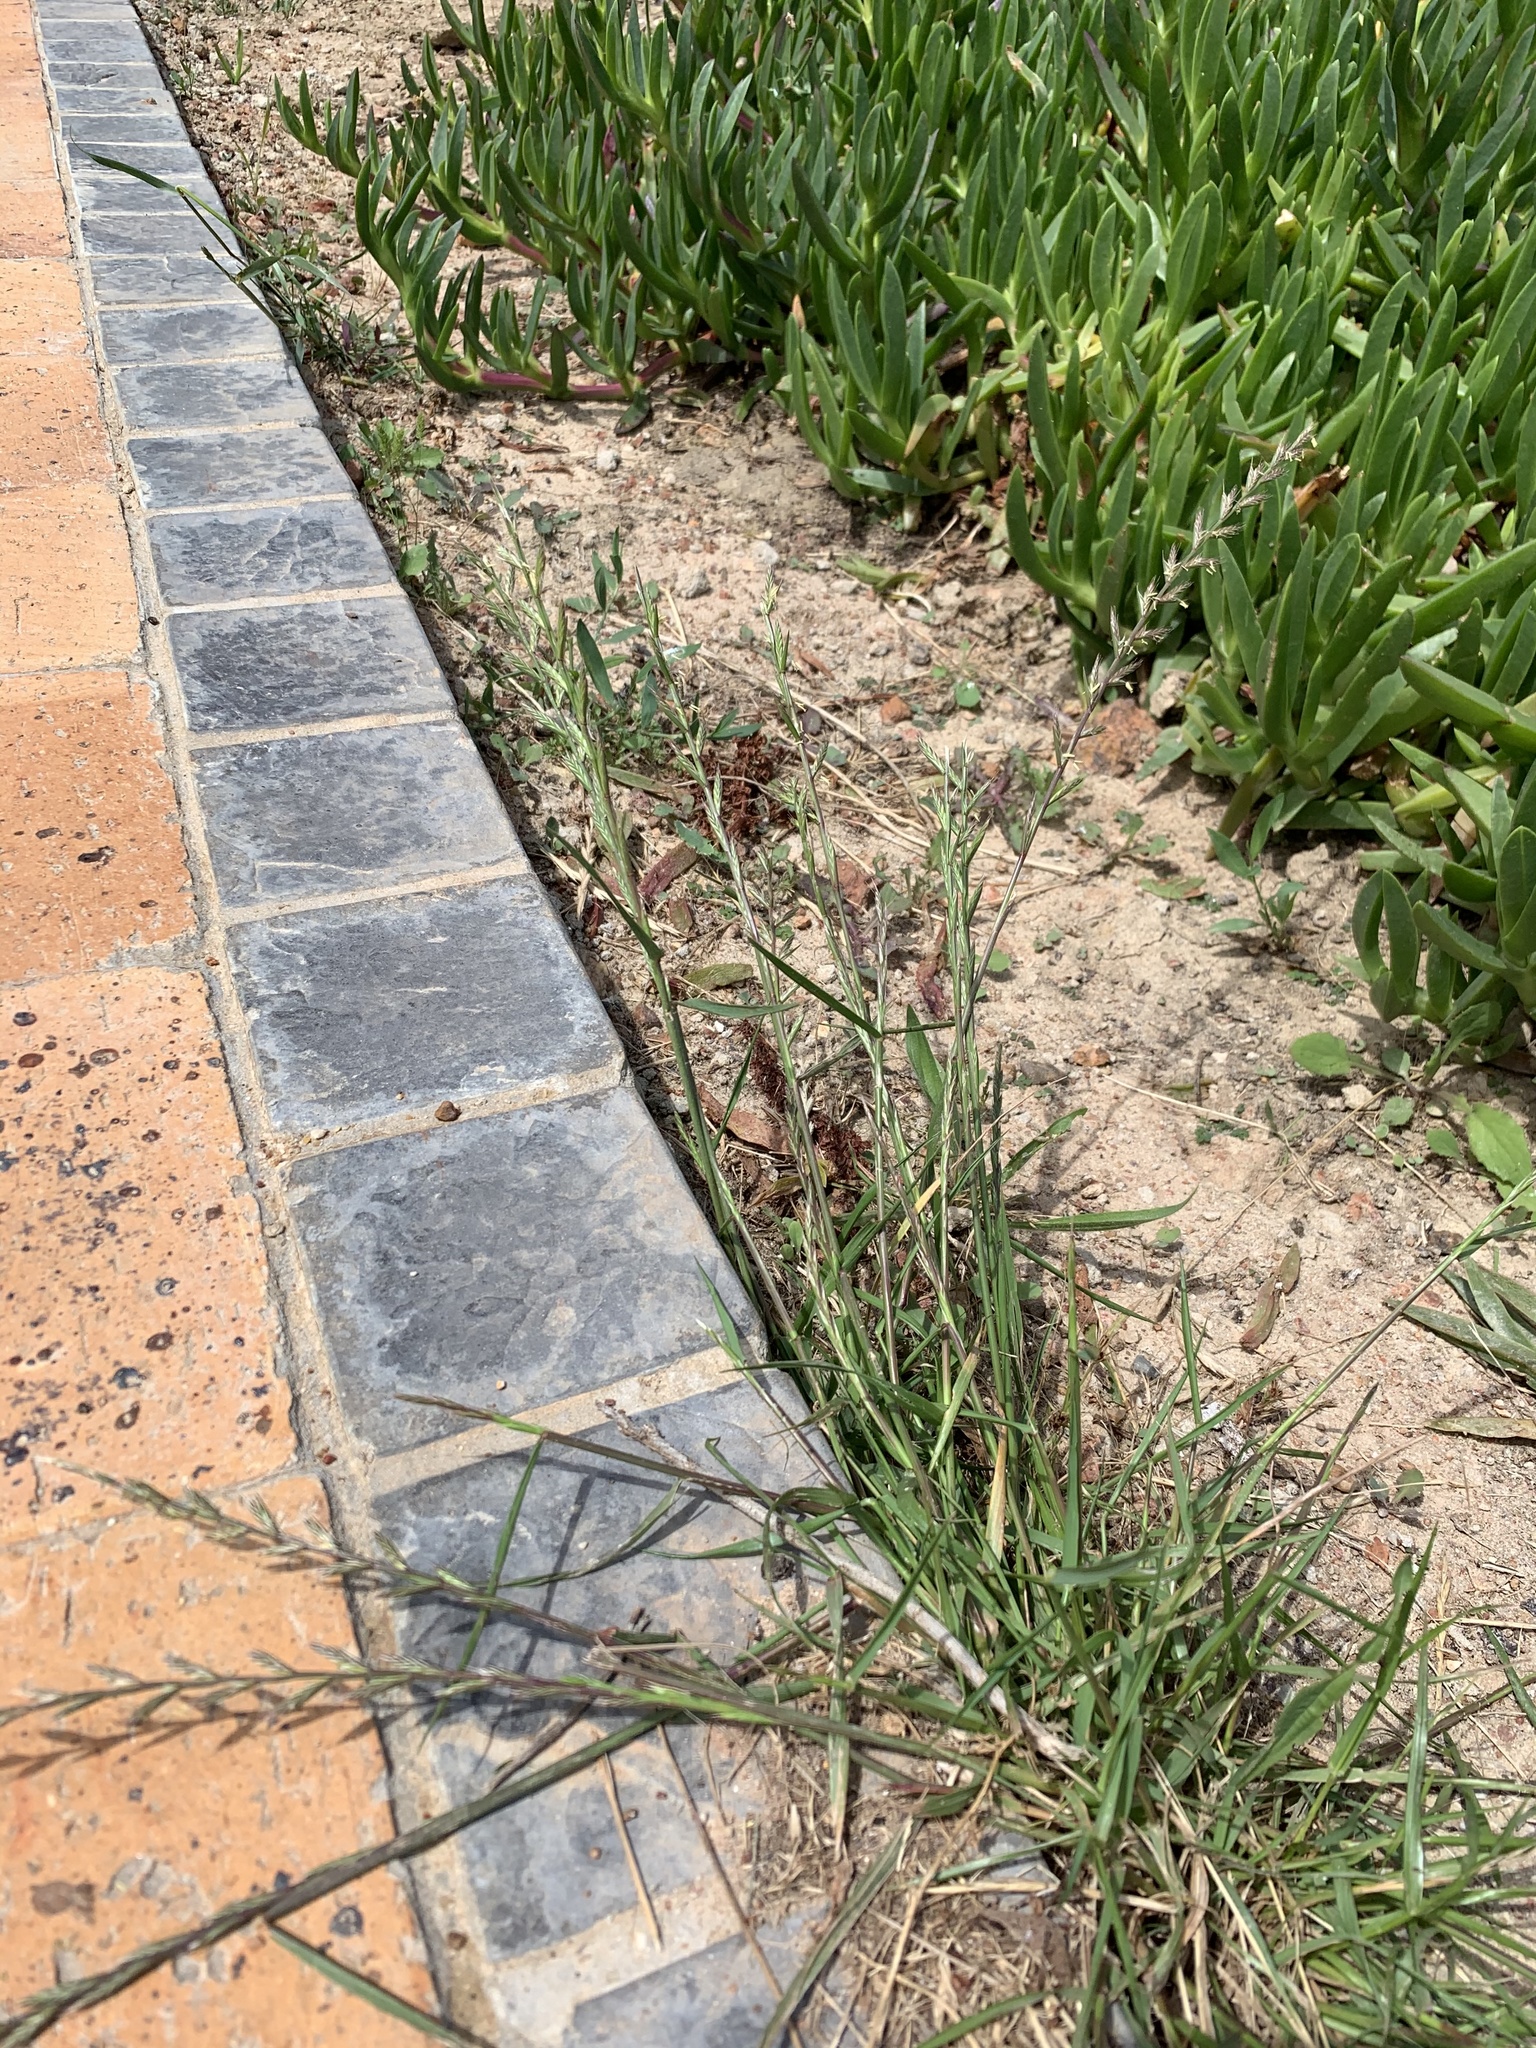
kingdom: Plantae
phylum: Tracheophyta
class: Liliopsida
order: Poales
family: Poaceae
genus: Lolium
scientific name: Lolium multiflorum
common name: Annual ryegrass
